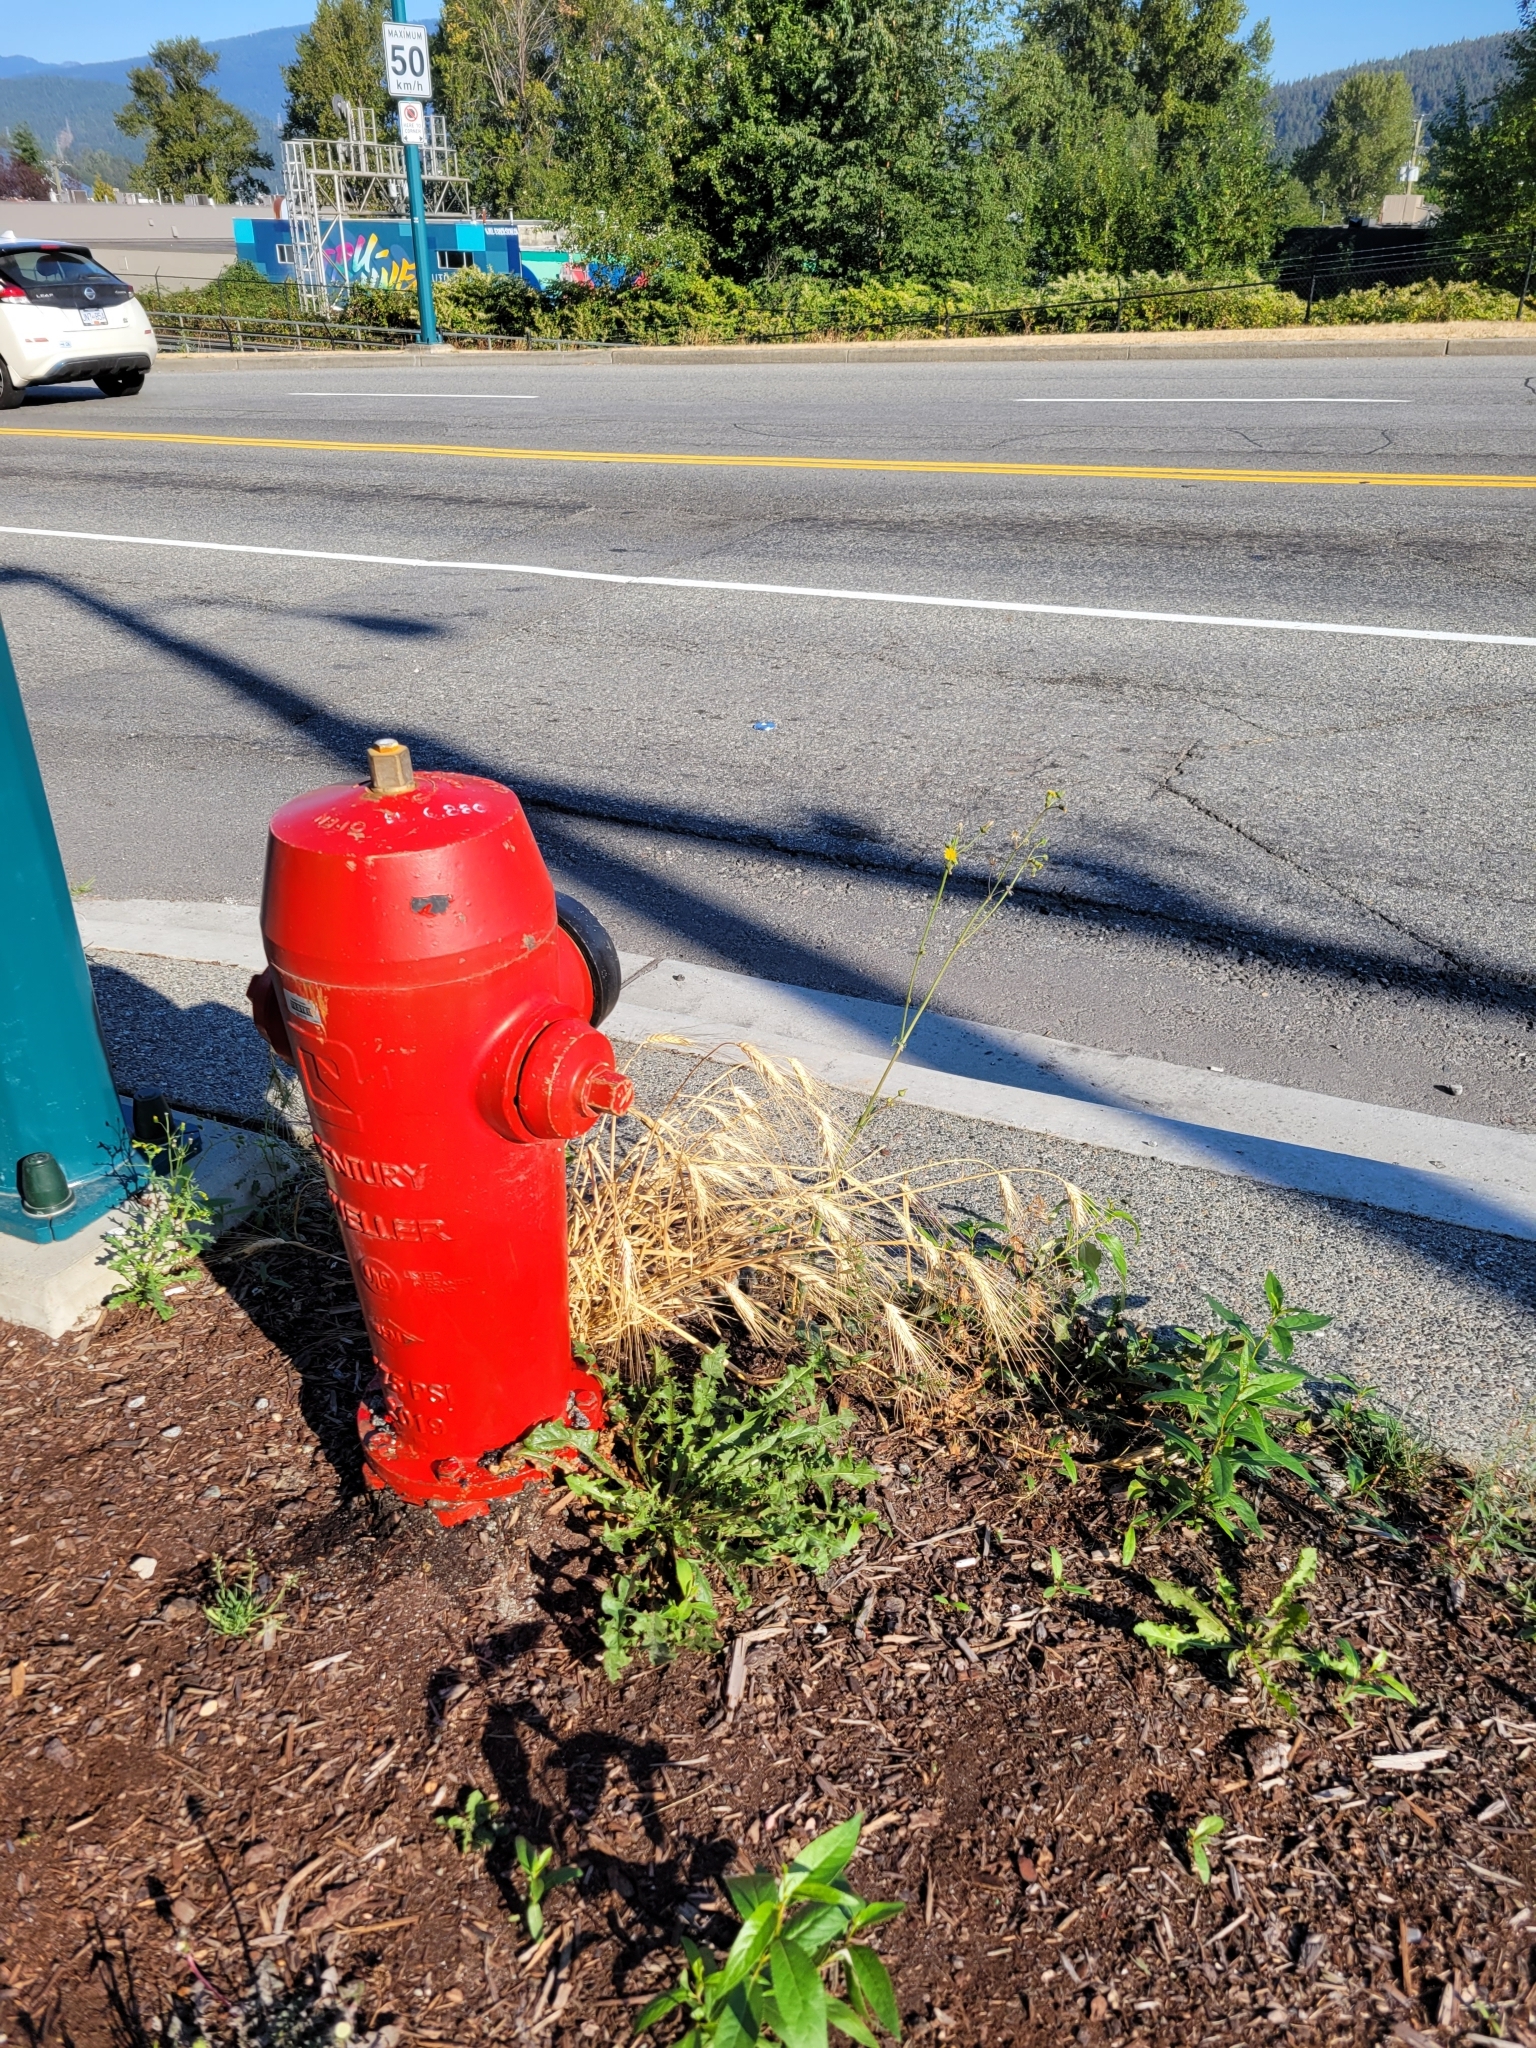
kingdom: Plantae
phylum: Tracheophyta
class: Liliopsida
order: Poales
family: Poaceae
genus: Triticum
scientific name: Triticum aestivum
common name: Common wheat
